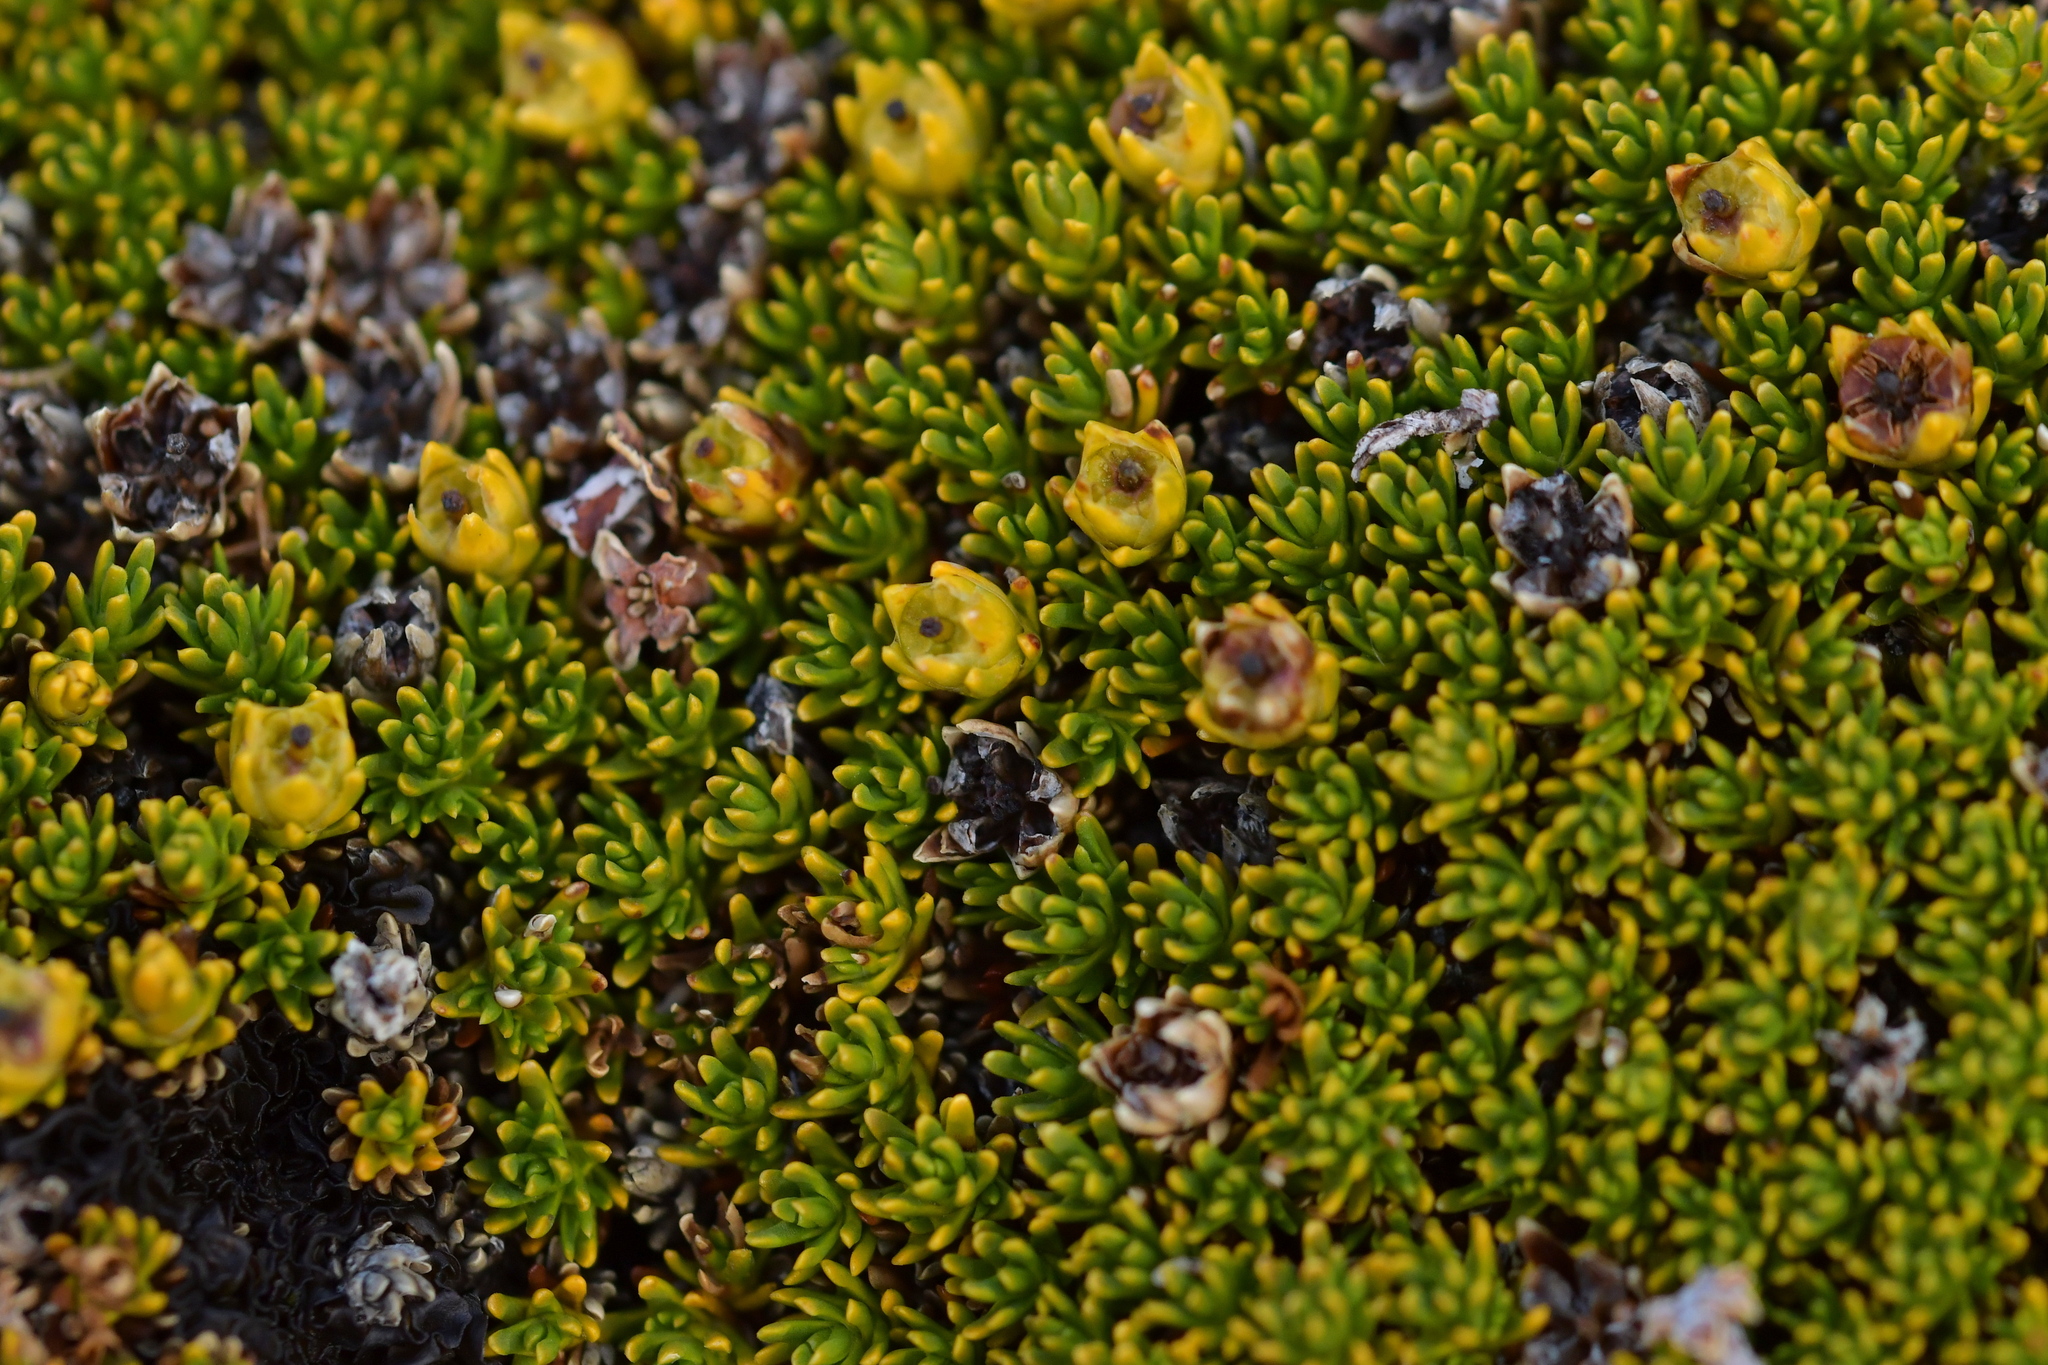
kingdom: Plantae
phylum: Tracheophyta
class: Magnoliopsida
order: Ericales
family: Ericaceae
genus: Dracophyllum
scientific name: Dracophyllum muscoides
